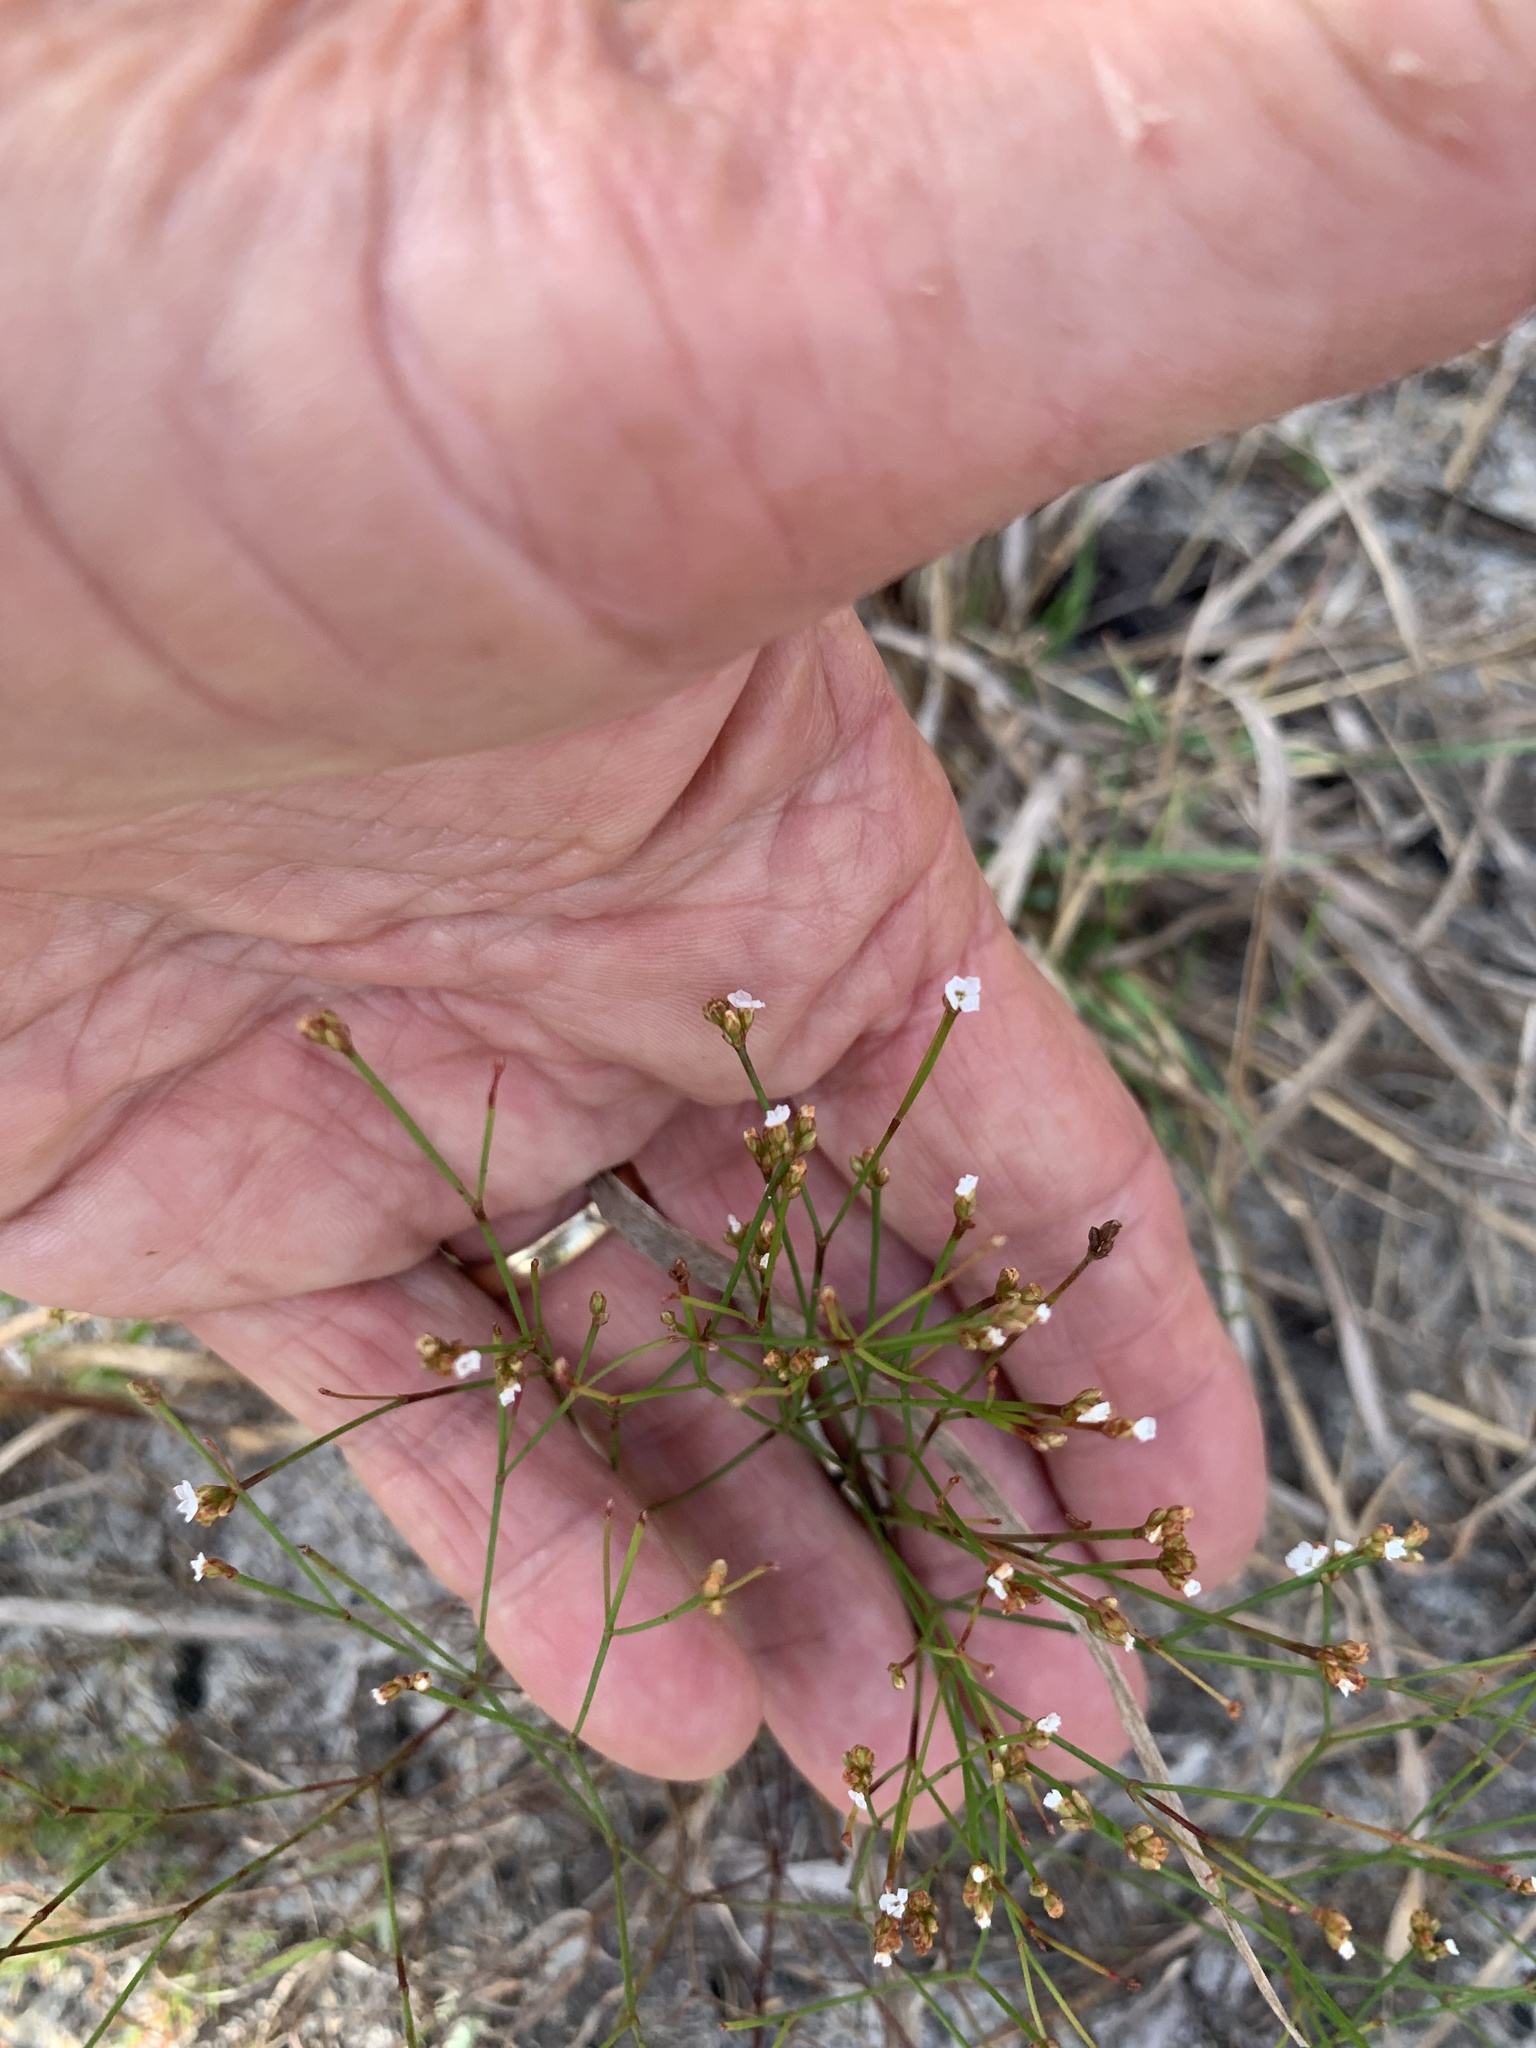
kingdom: Plantae
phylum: Tracheophyta
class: Magnoliopsida
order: Caryophyllales
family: Caryophyllaceae
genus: Stipulicida
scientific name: Stipulicida setacea
